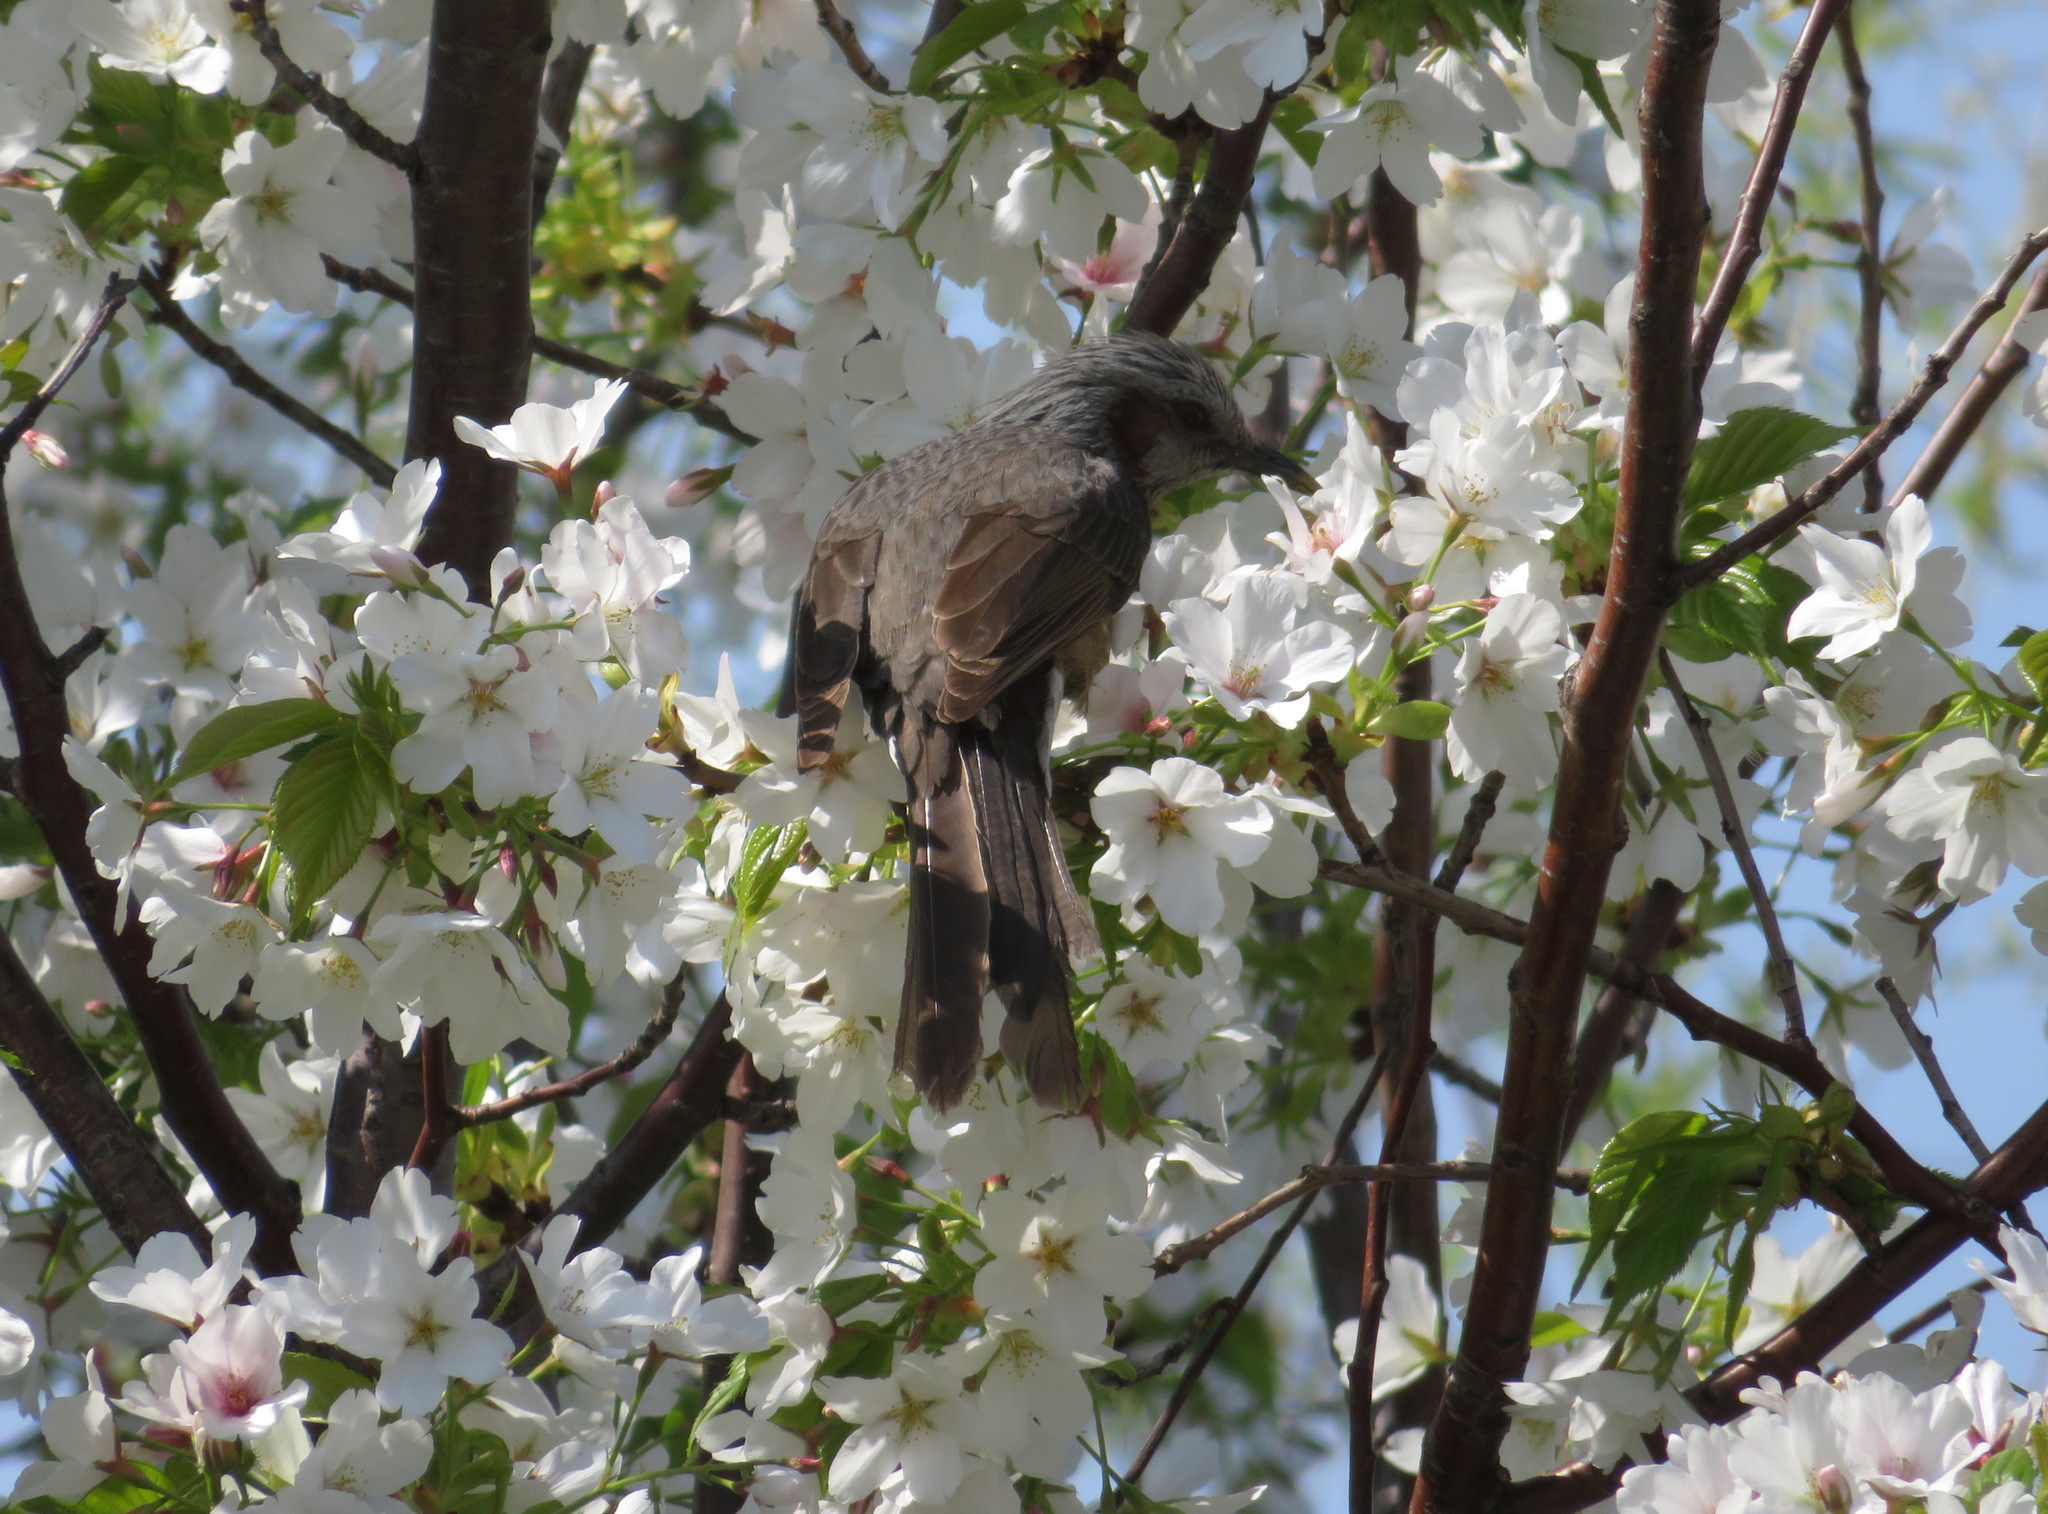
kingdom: Animalia
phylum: Chordata
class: Aves
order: Passeriformes
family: Pycnonotidae
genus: Hypsipetes
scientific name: Hypsipetes amaurotis
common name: Brown-eared bulbul
